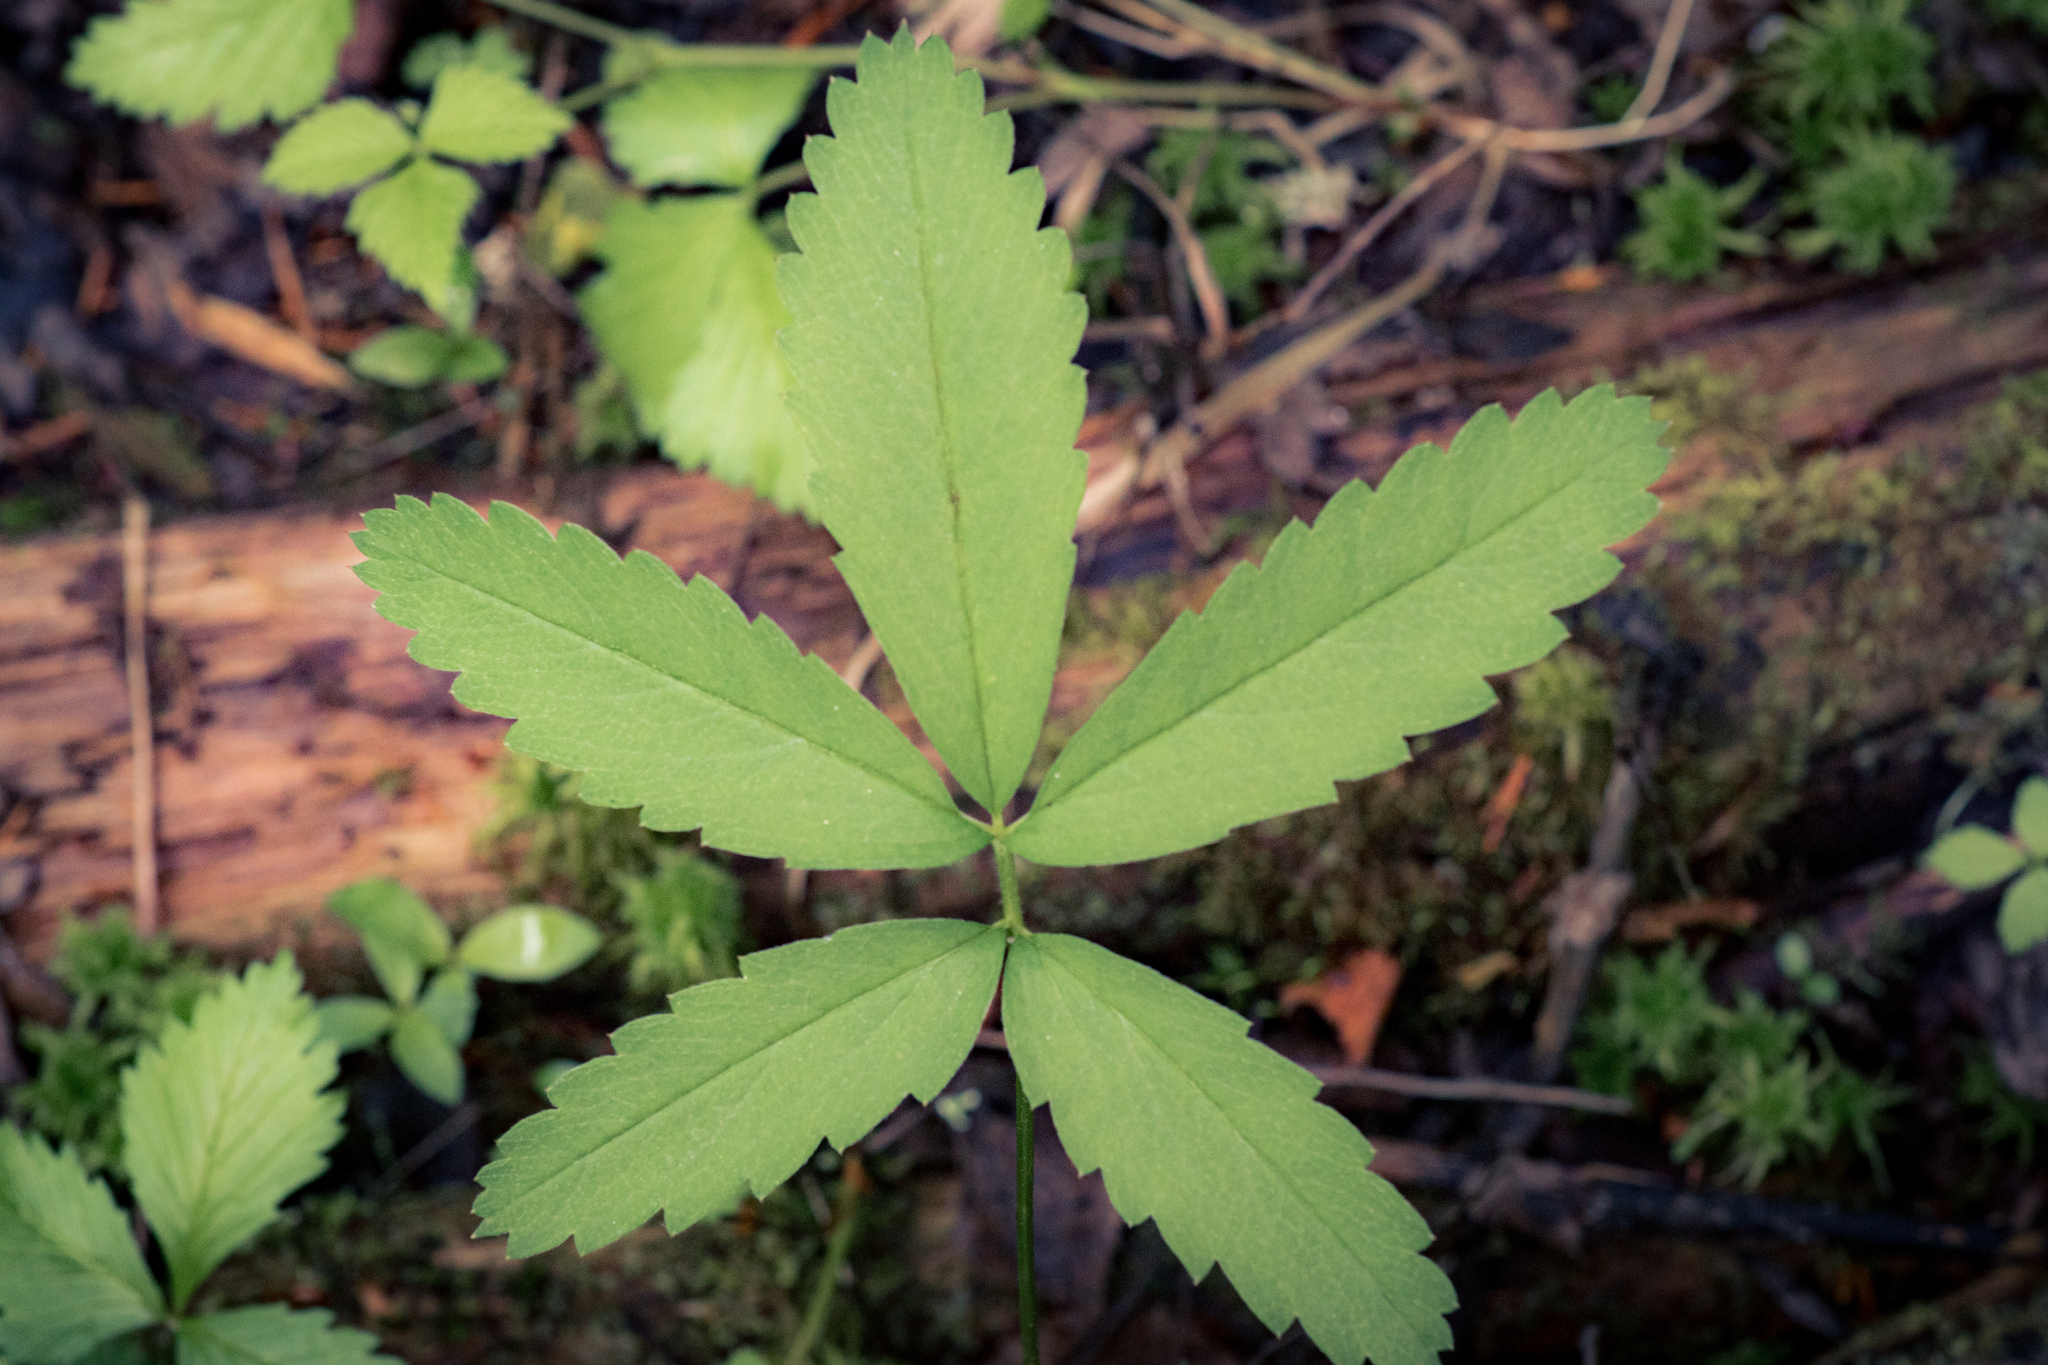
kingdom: Plantae
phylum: Tracheophyta
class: Magnoliopsida
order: Rosales
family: Rosaceae
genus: Comarum
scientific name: Comarum palustre
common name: Marsh cinquefoil
